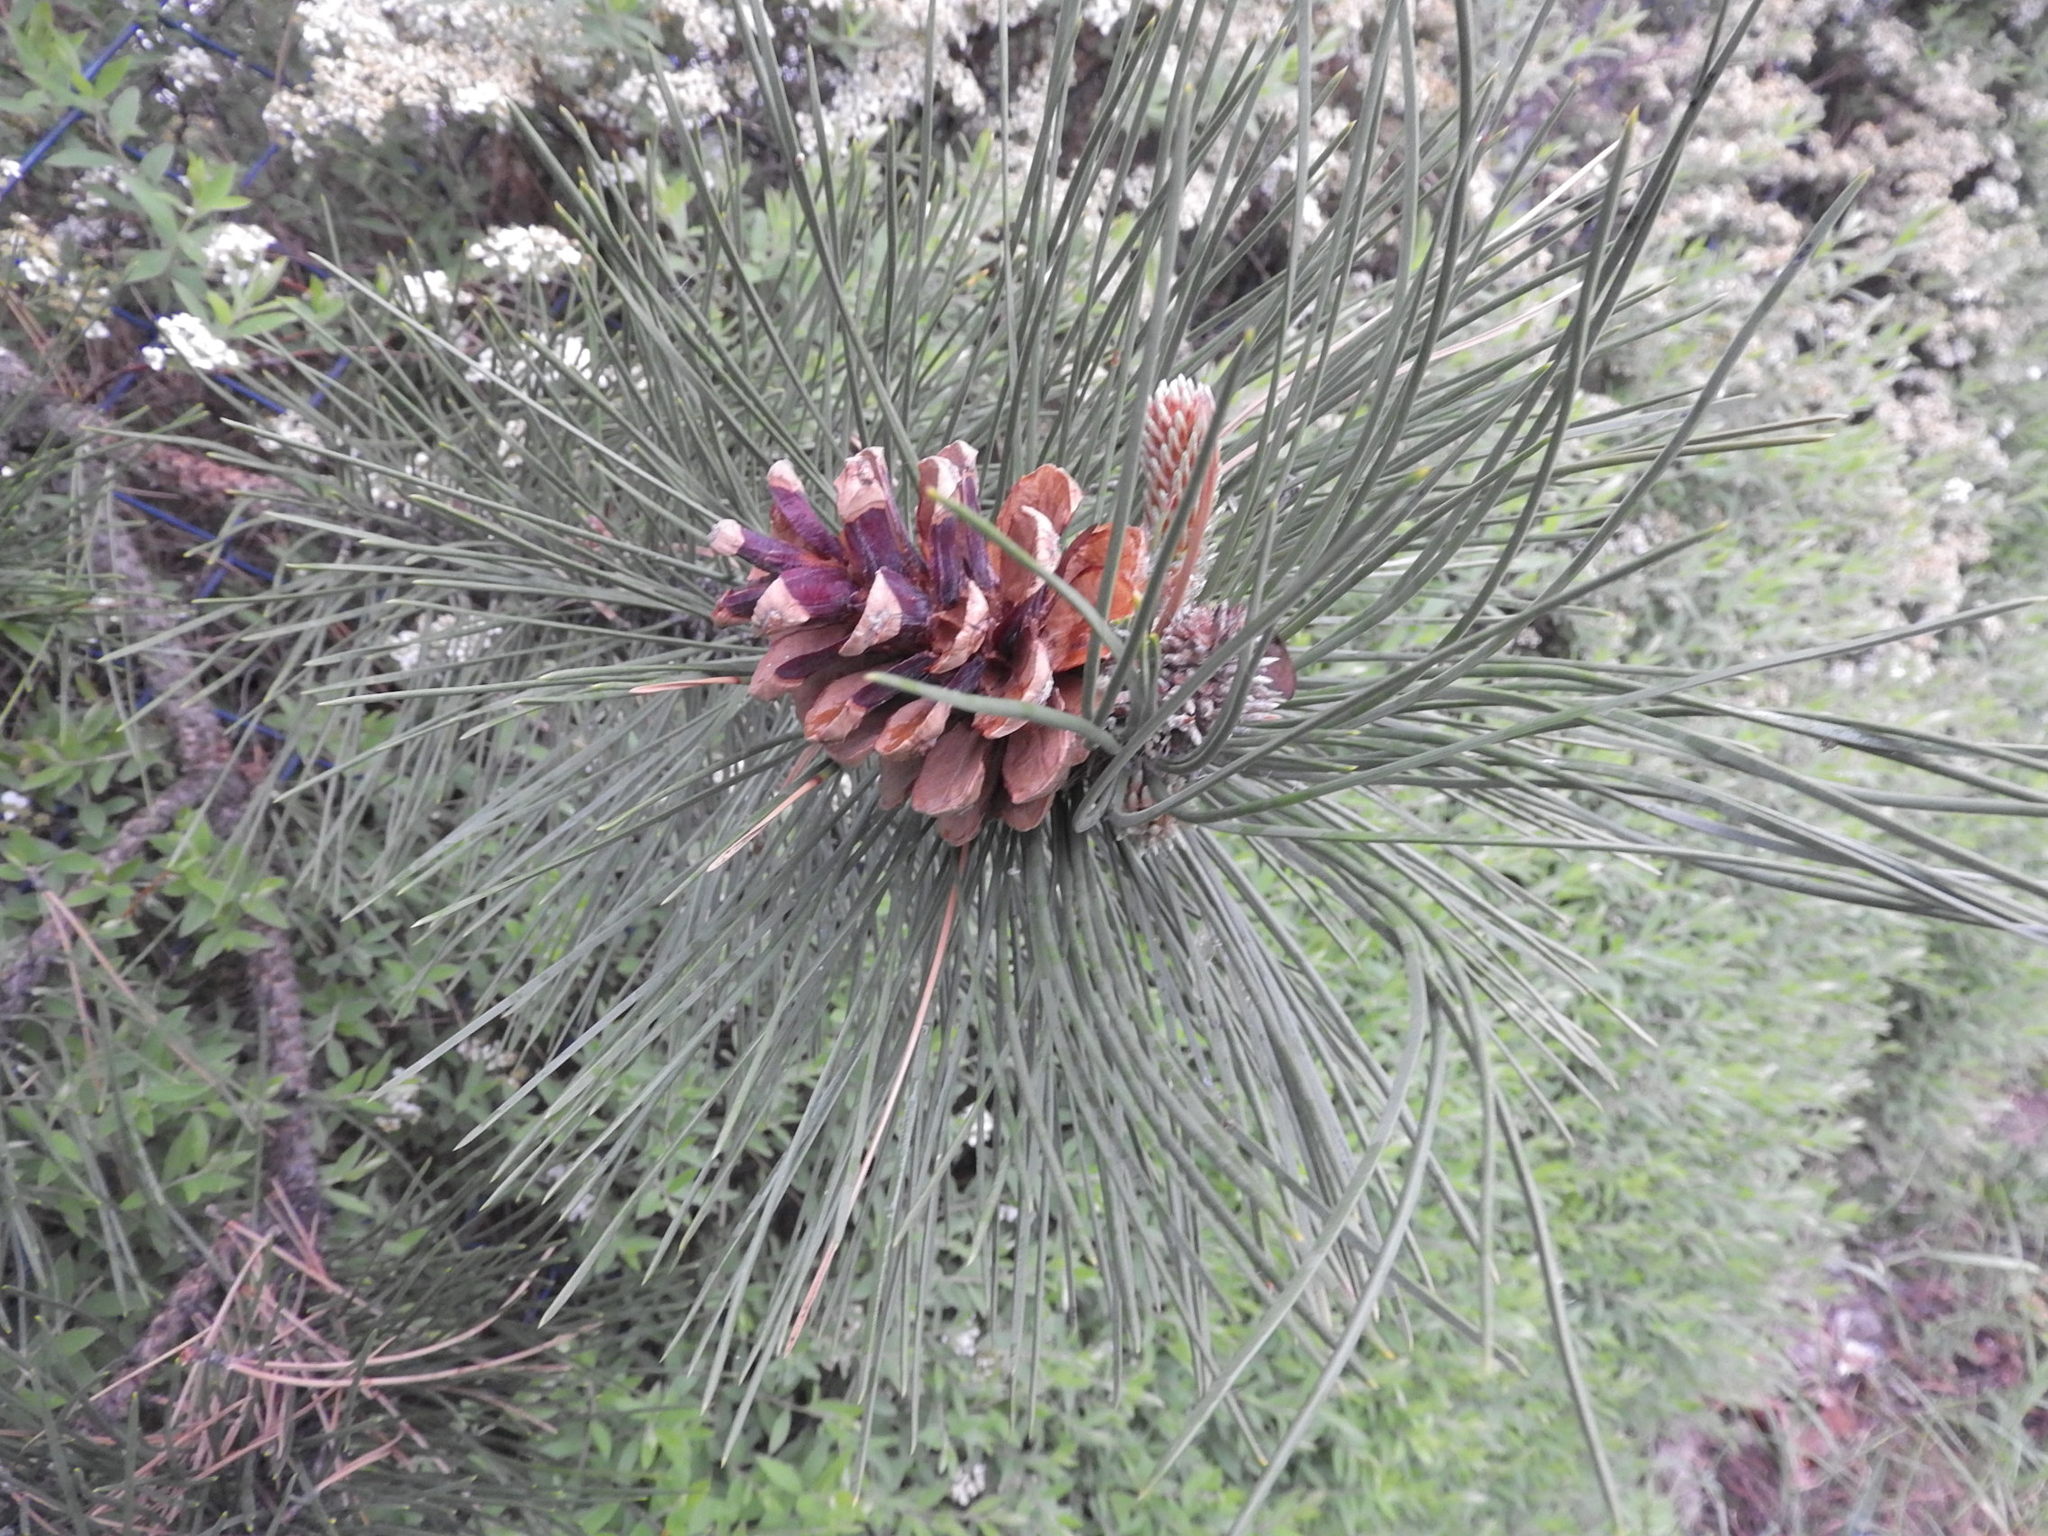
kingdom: Plantae
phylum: Tracheophyta
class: Pinopsida
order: Pinales
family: Pinaceae
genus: Pinus
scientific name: Pinus nigra
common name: Austrian pine
